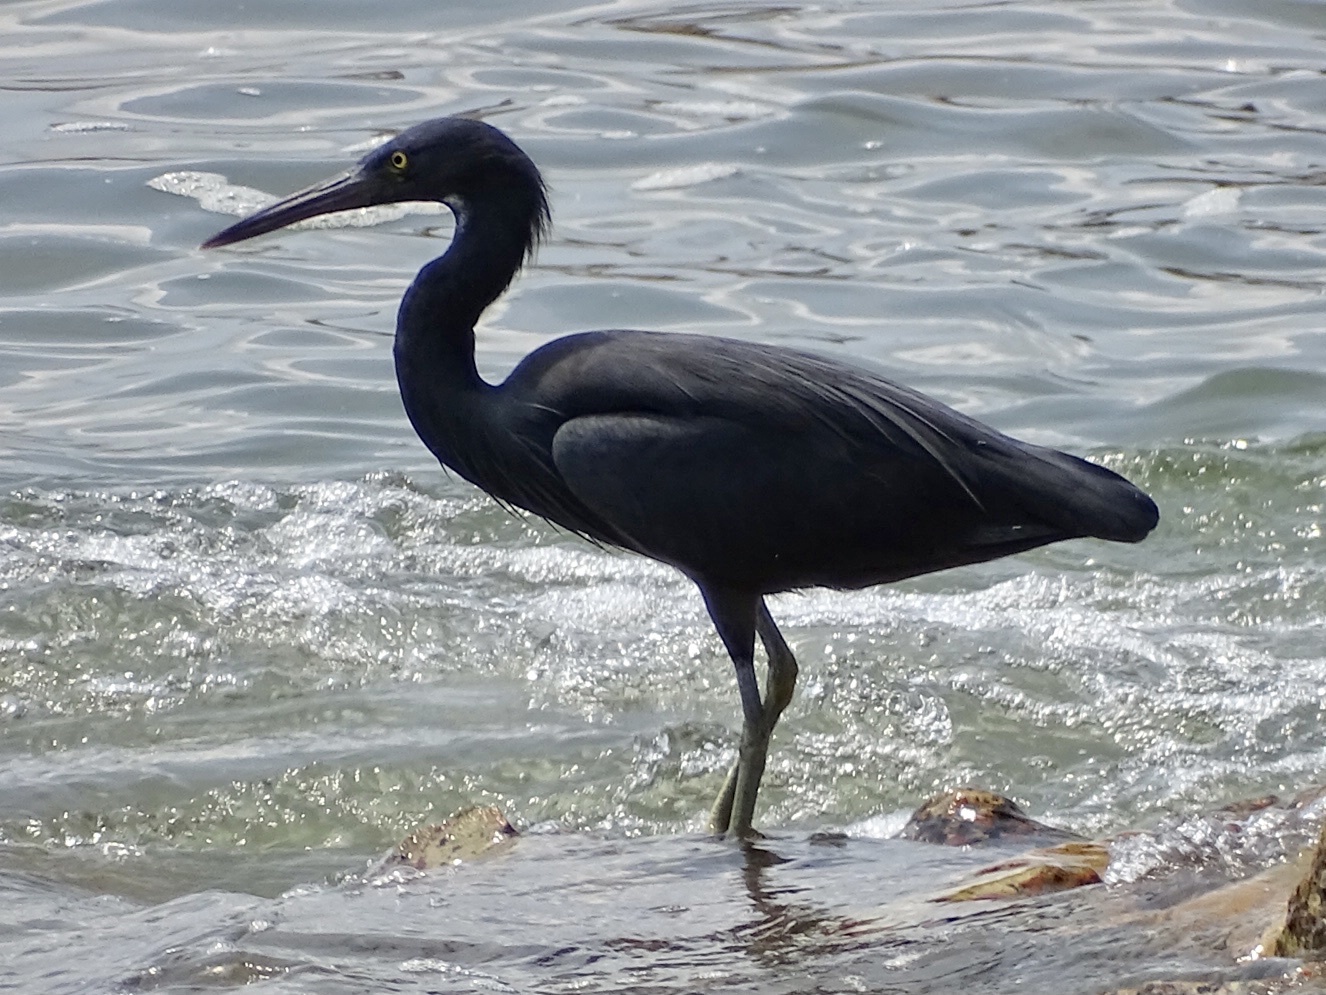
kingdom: Animalia
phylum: Chordata
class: Aves
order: Pelecaniformes
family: Ardeidae
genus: Egretta
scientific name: Egretta sacra
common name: Pacific reef heron
